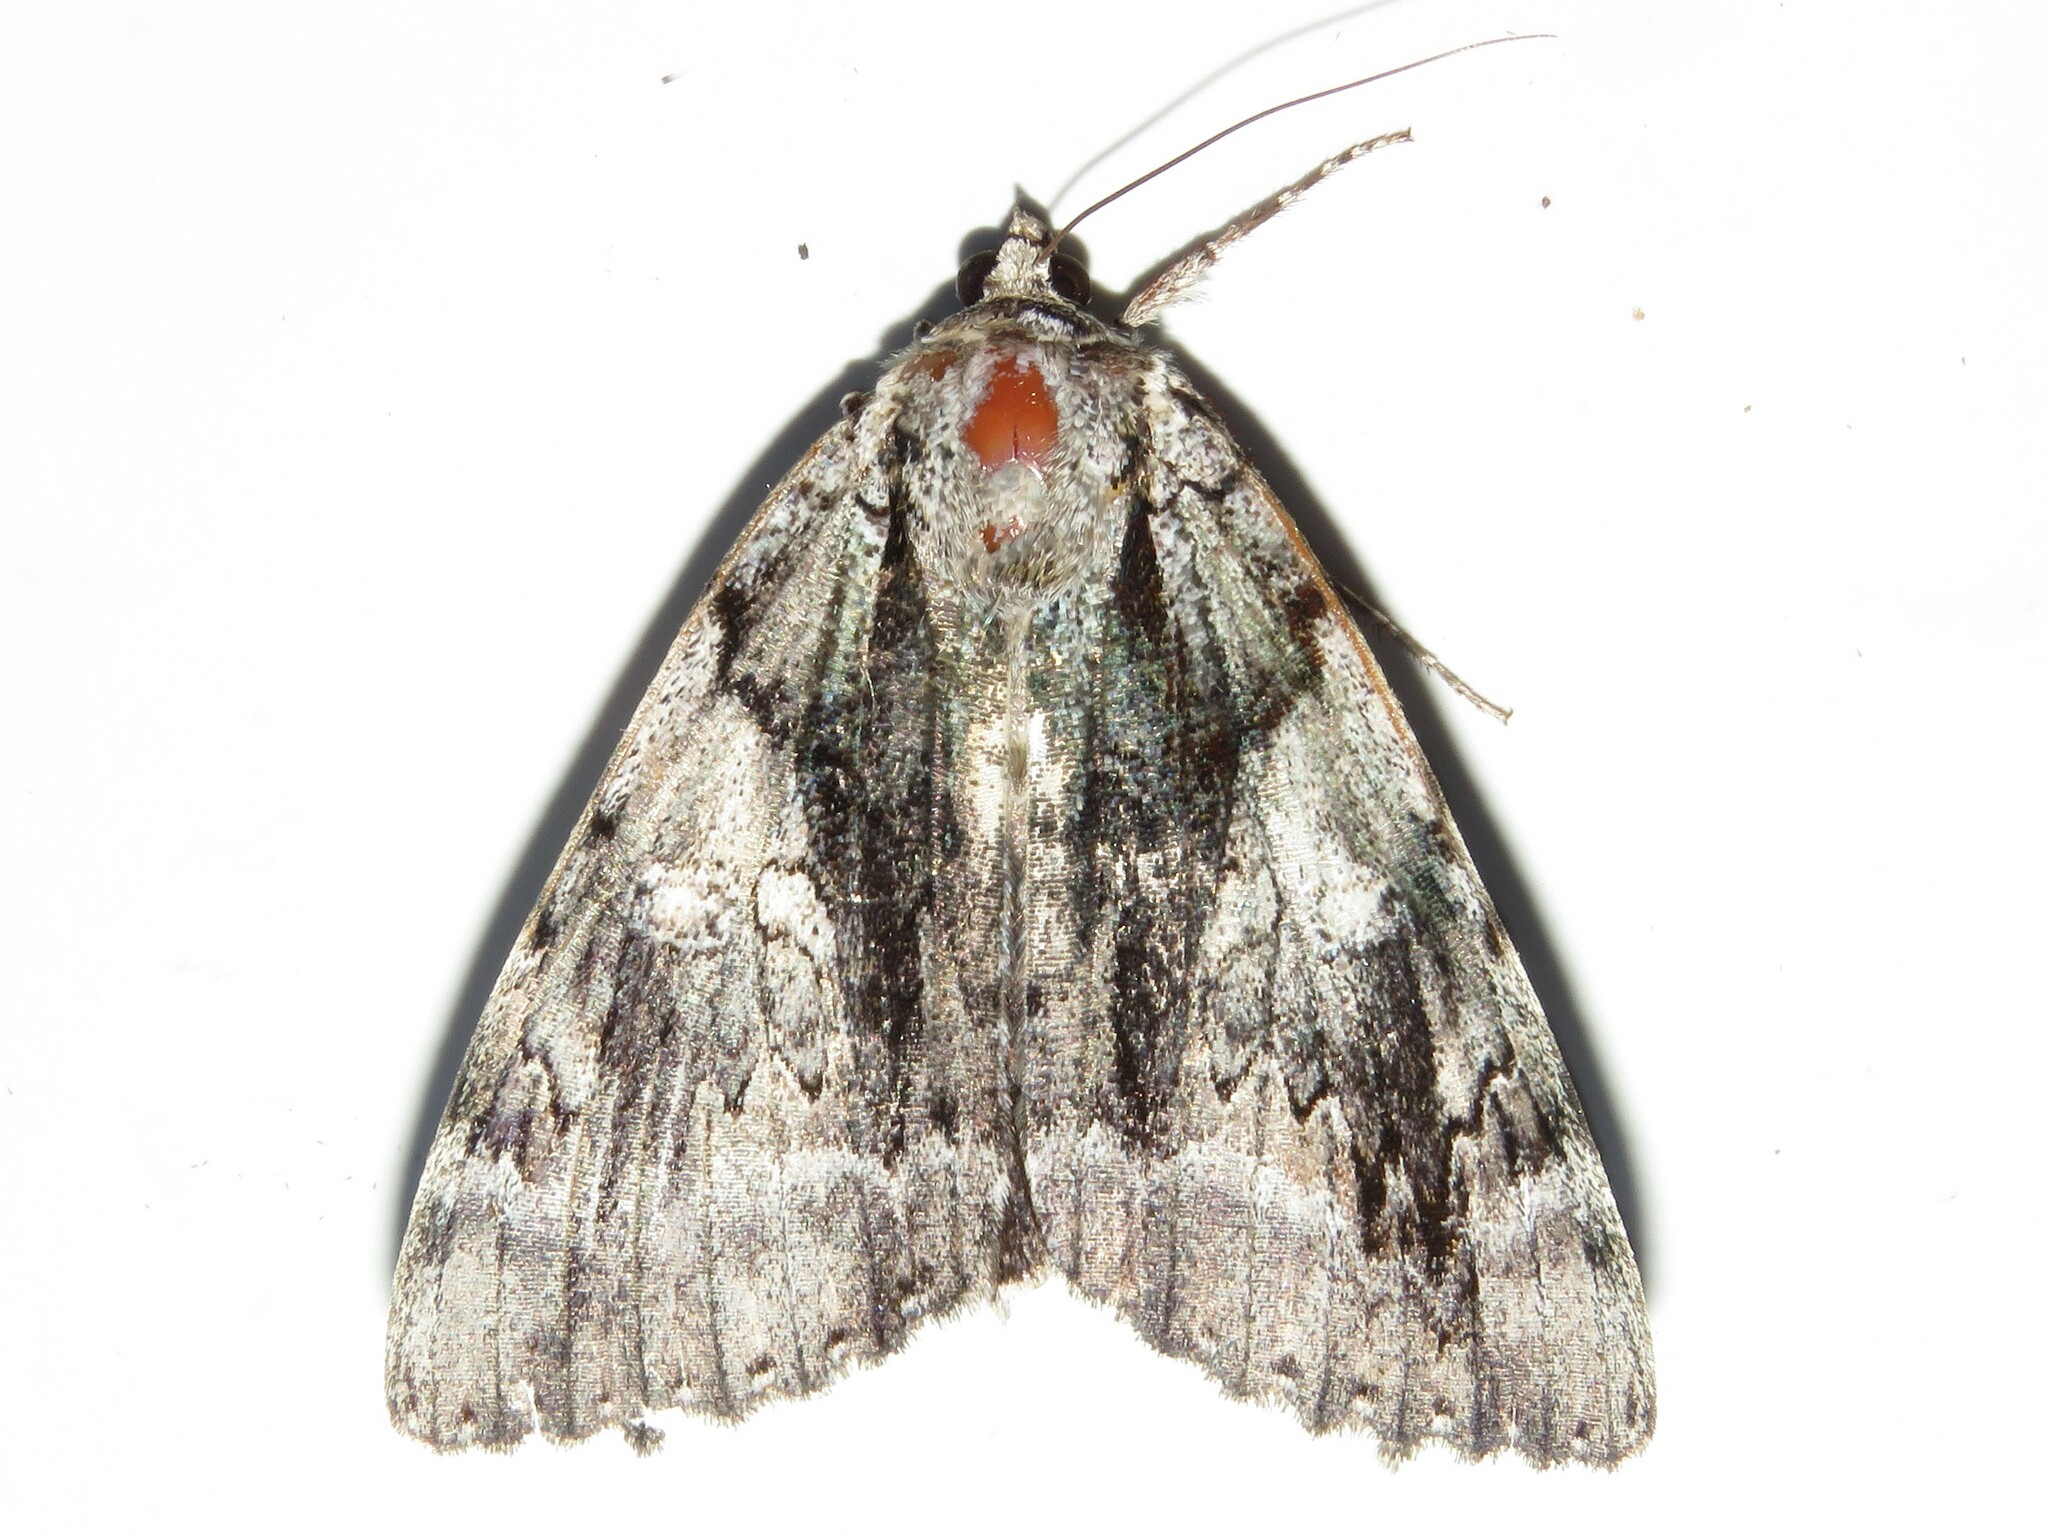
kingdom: Animalia
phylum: Arthropoda
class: Insecta
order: Lepidoptera
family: Erebidae
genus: Catocala
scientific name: Catocala vidua
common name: The widow
